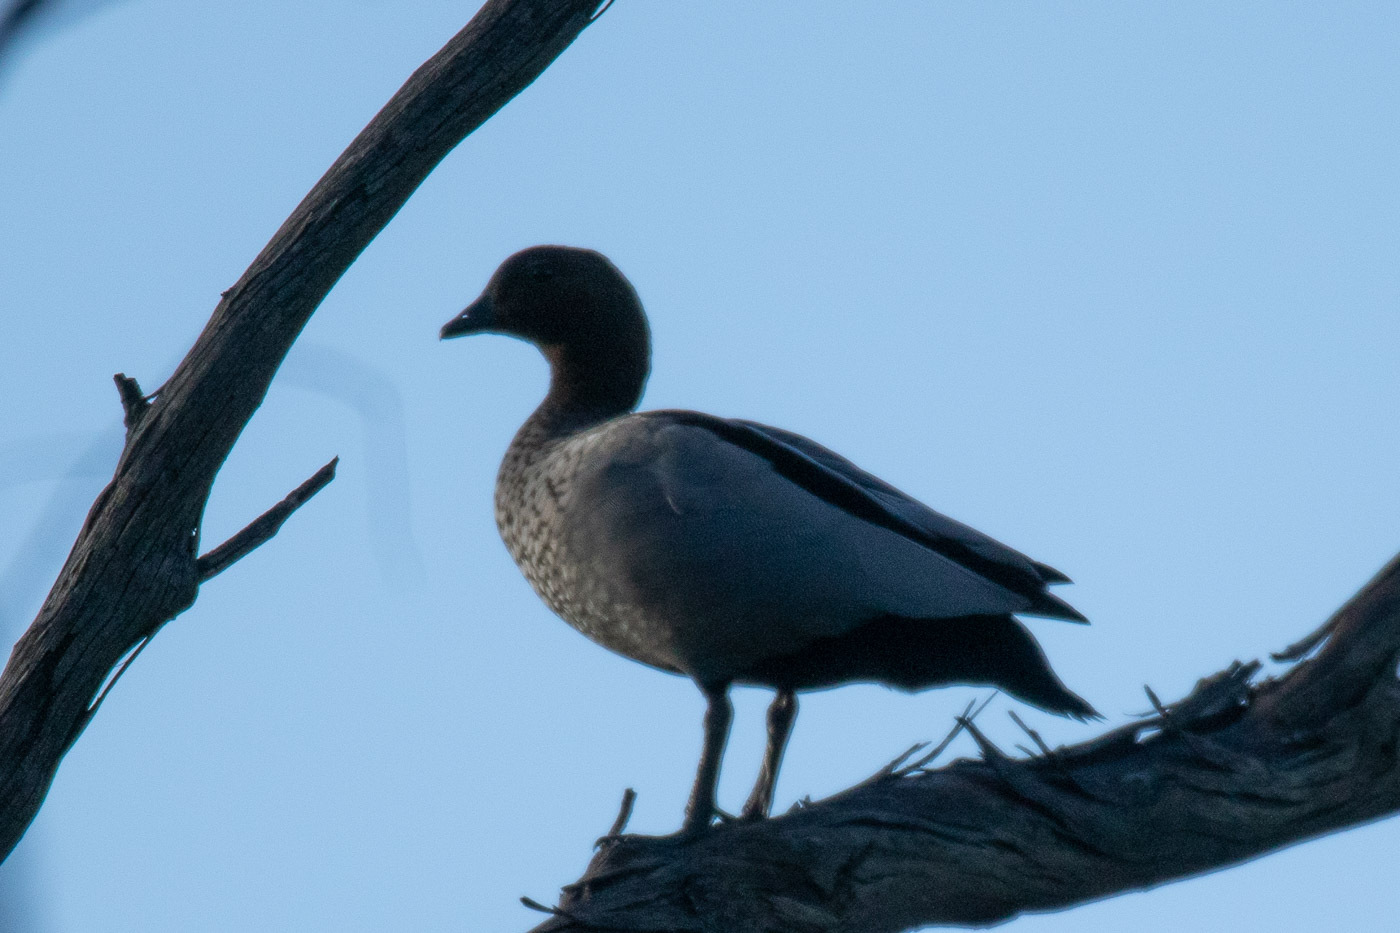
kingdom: Animalia
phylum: Chordata
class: Aves
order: Anseriformes
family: Anatidae
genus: Chenonetta
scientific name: Chenonetta jubata
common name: Maned duck
